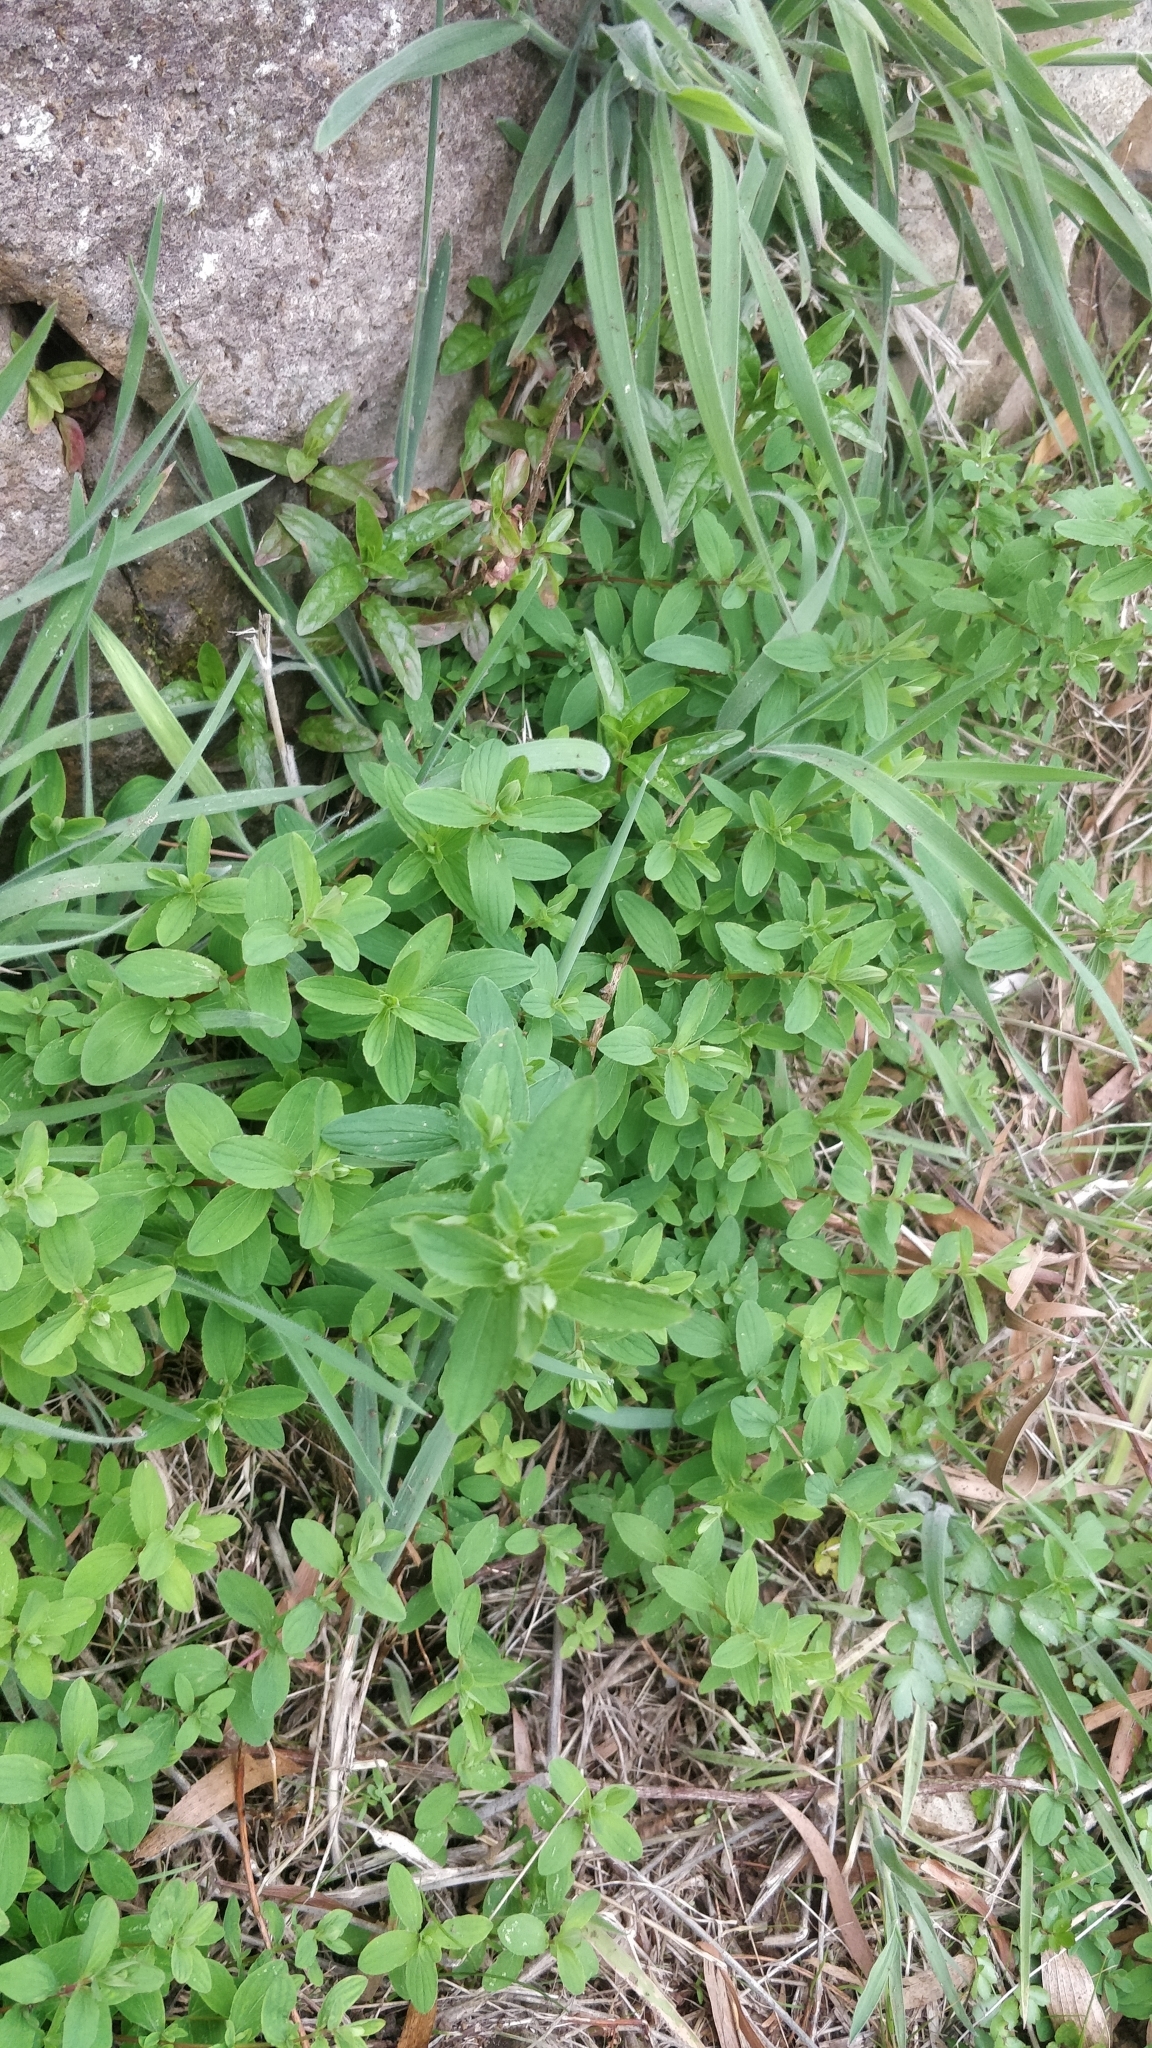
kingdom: Plantae
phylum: Tracheophyta
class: Magnoliopsida
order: Malpighiales
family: Hypericaceae
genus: Hypericum
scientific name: Hypericum undulatum
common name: Wavy st. john's-wort
